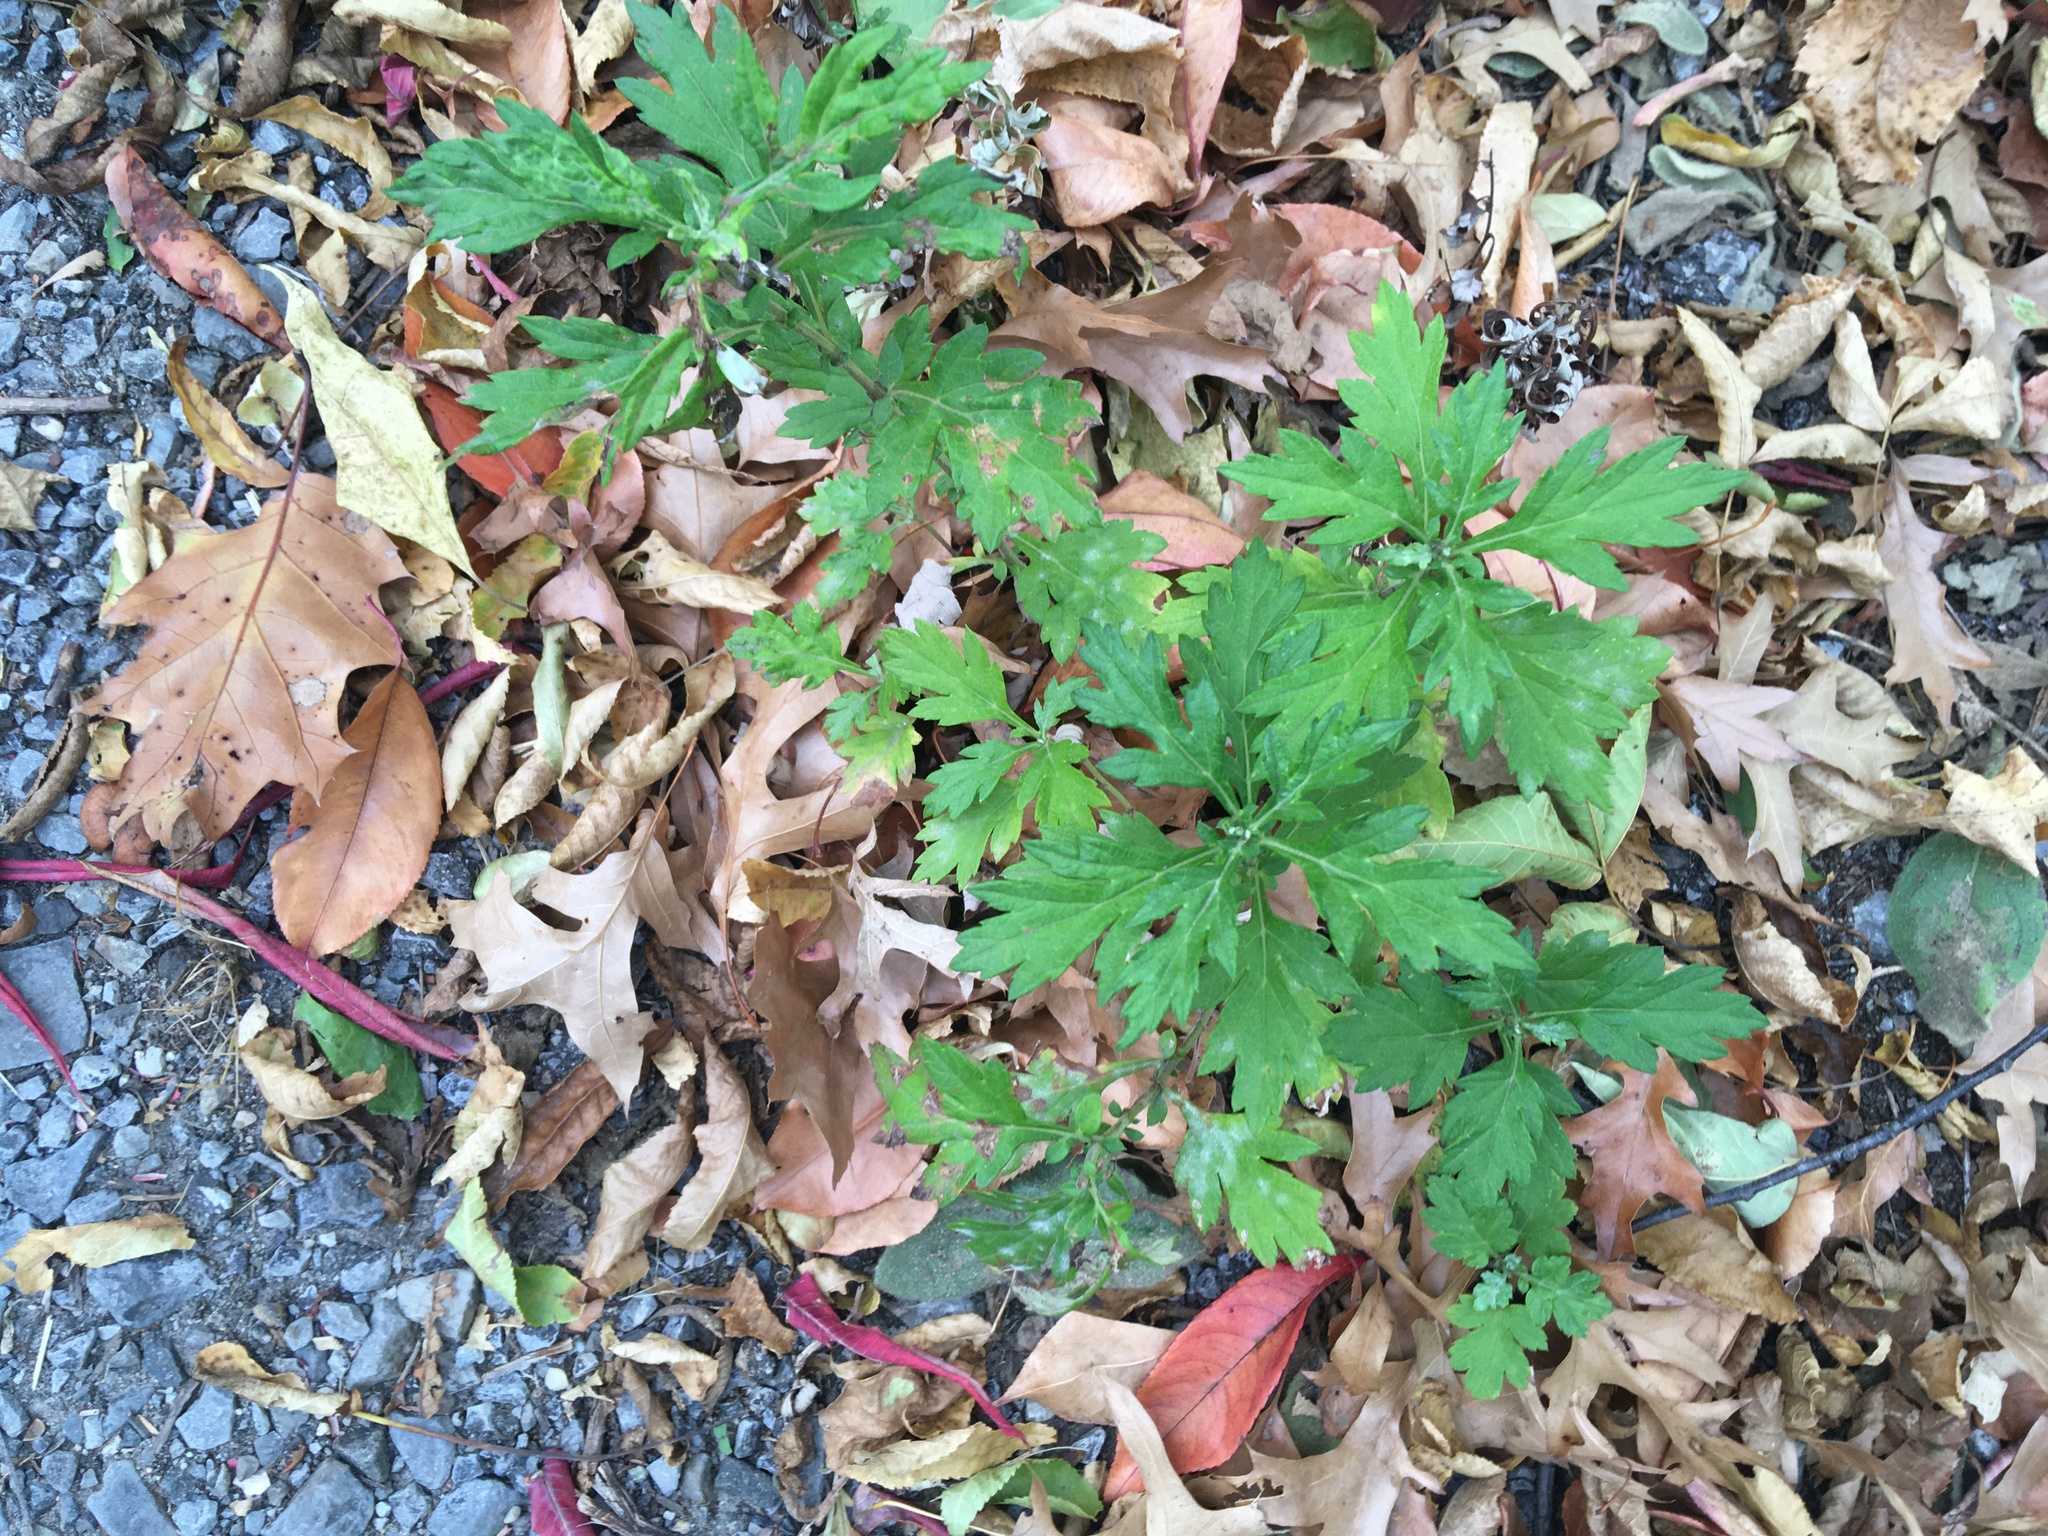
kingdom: Plantae
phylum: Tracheophyta
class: Magnoliopsida
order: Asterales
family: Asteraceae
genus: Artemisia
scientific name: Artemisia vulgaris
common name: Mugwort
